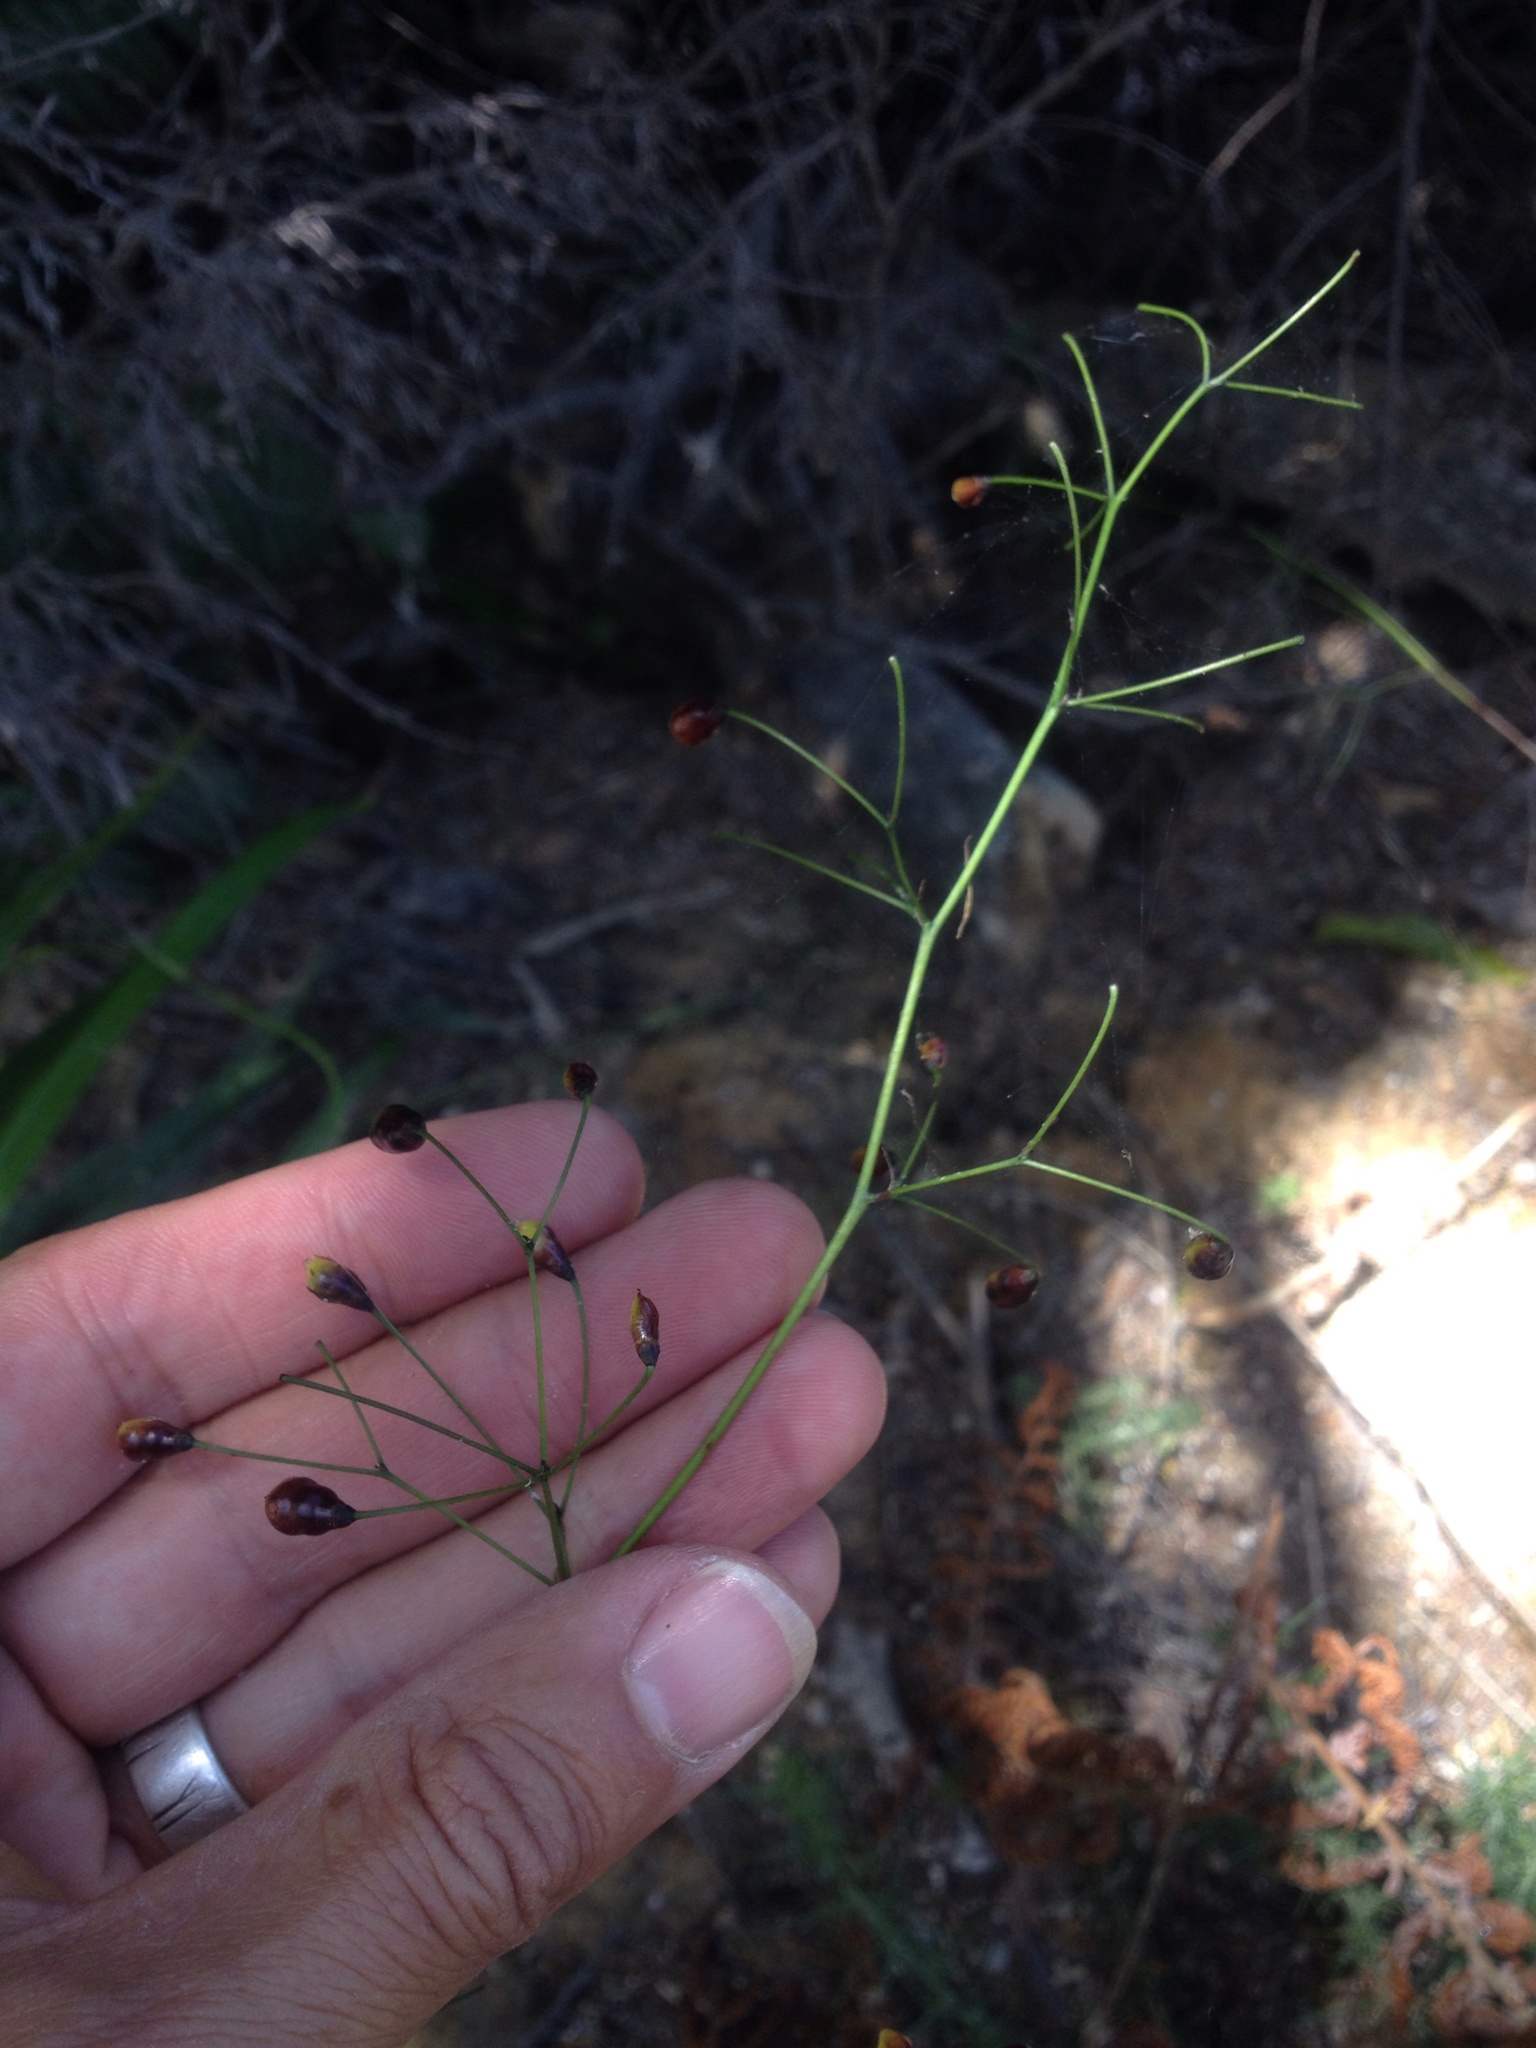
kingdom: Plantae
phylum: Tracheophyta
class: Liliopsida
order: Asparagales
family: Asphodelaceae
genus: Dianella
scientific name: Dianella nigra
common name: New zealand-blueberry
